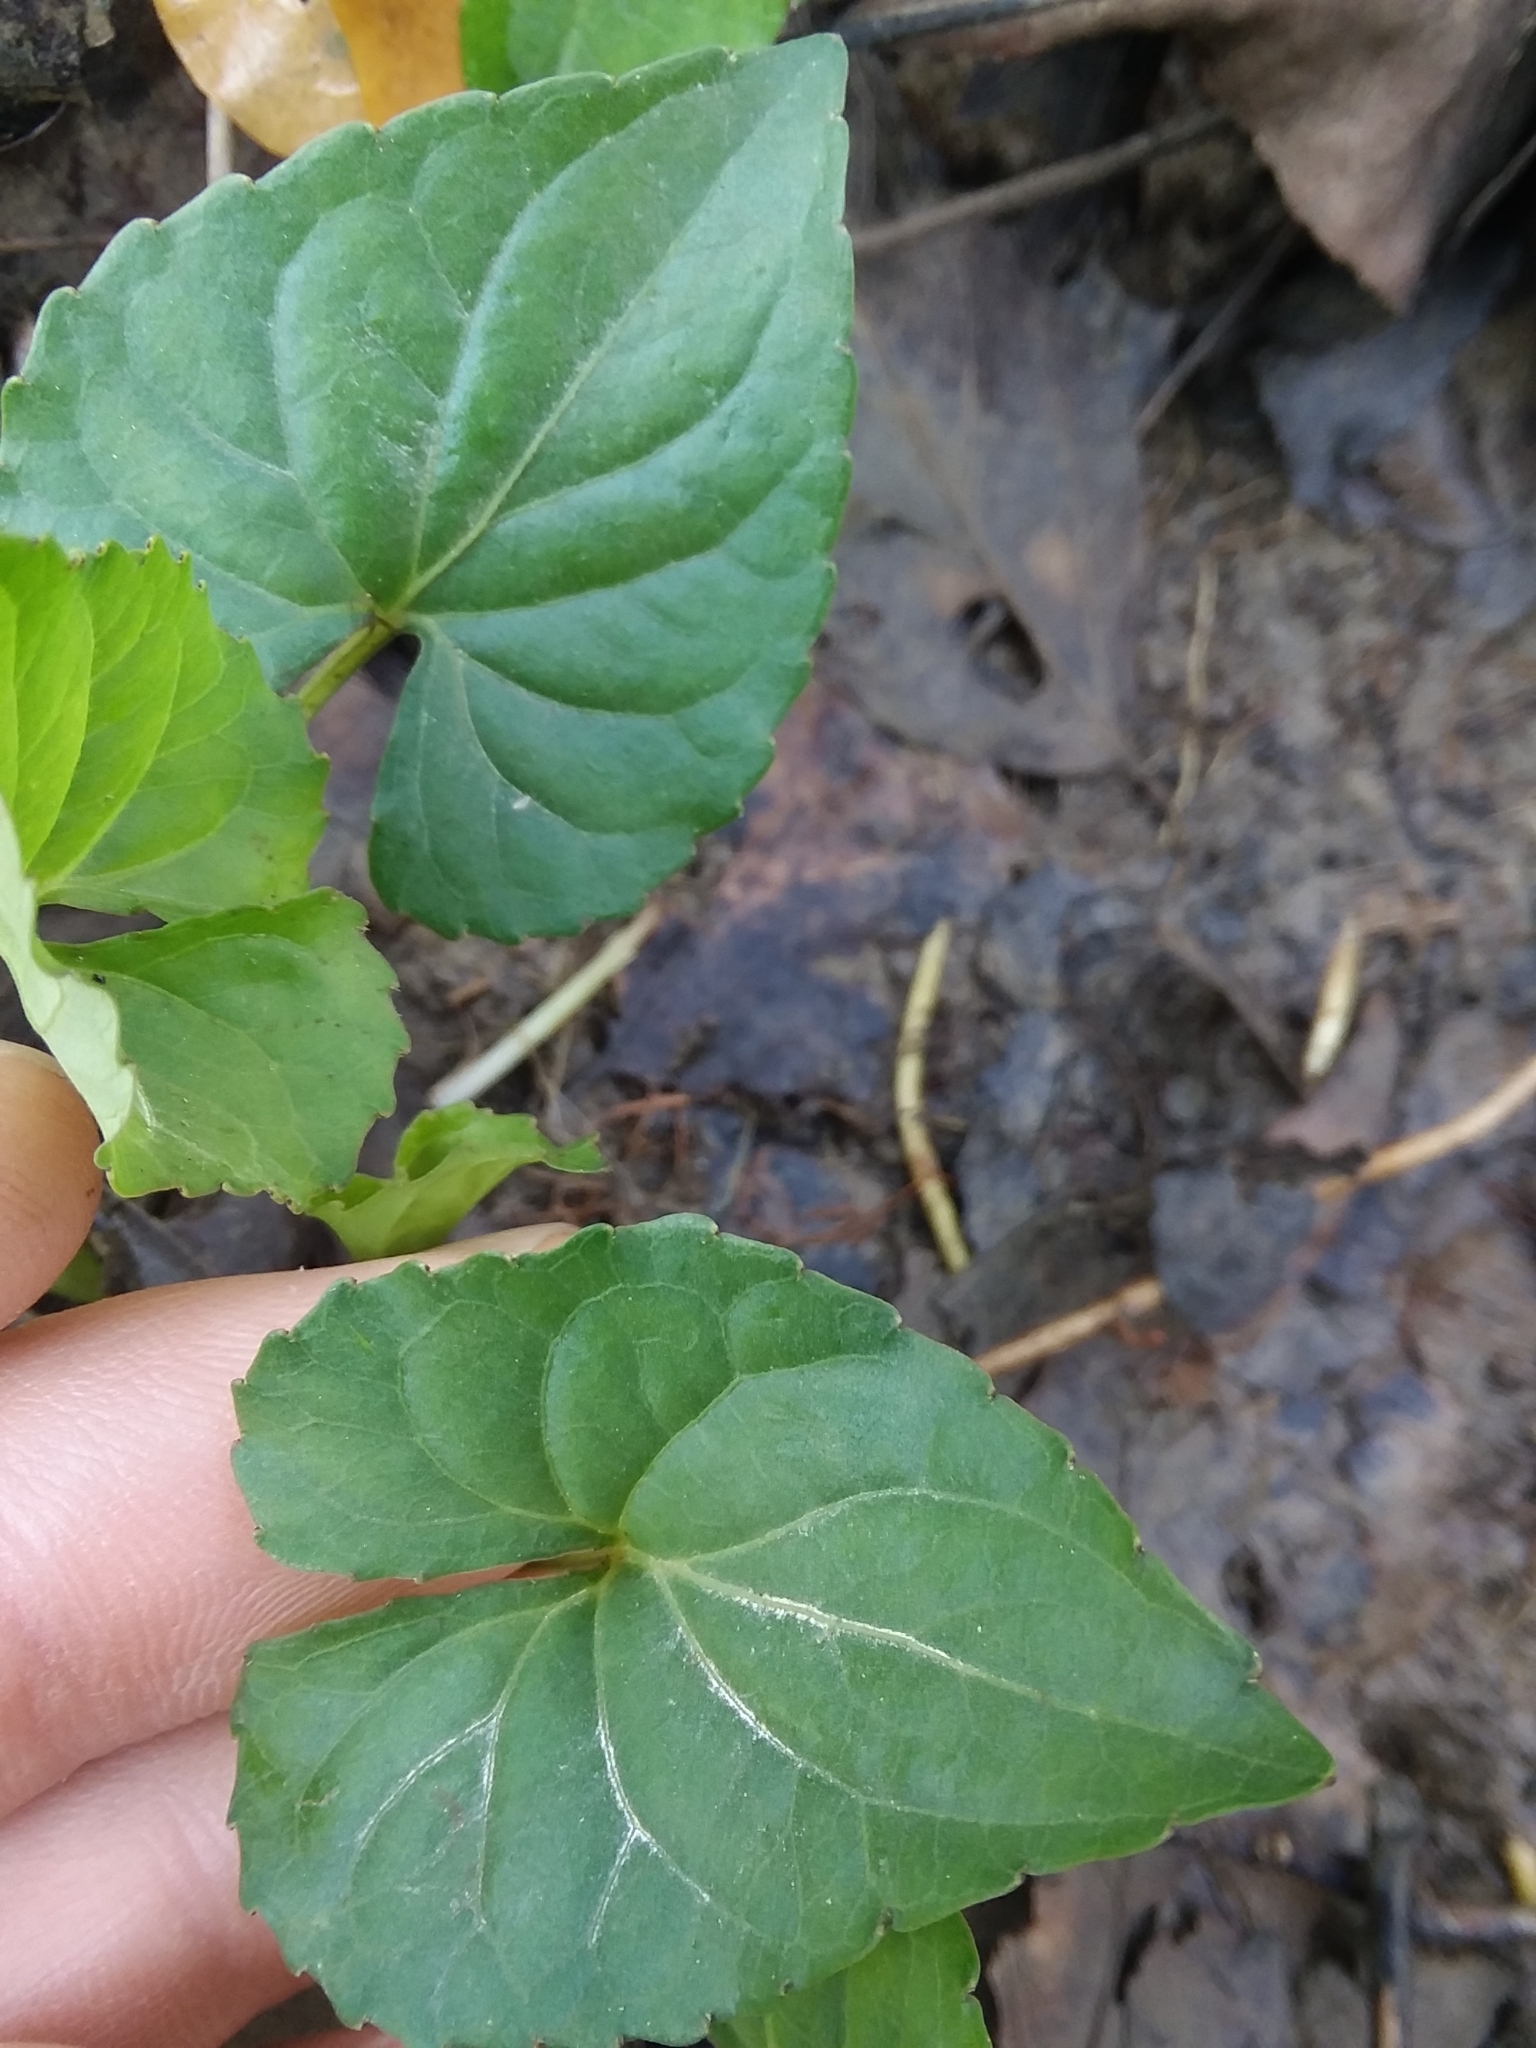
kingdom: Plantae
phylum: Tracheophyta
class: Magnoliopsida
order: Malpighiales
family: Violaceae
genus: Viola
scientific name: Viola sororia
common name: Dooryard violet
